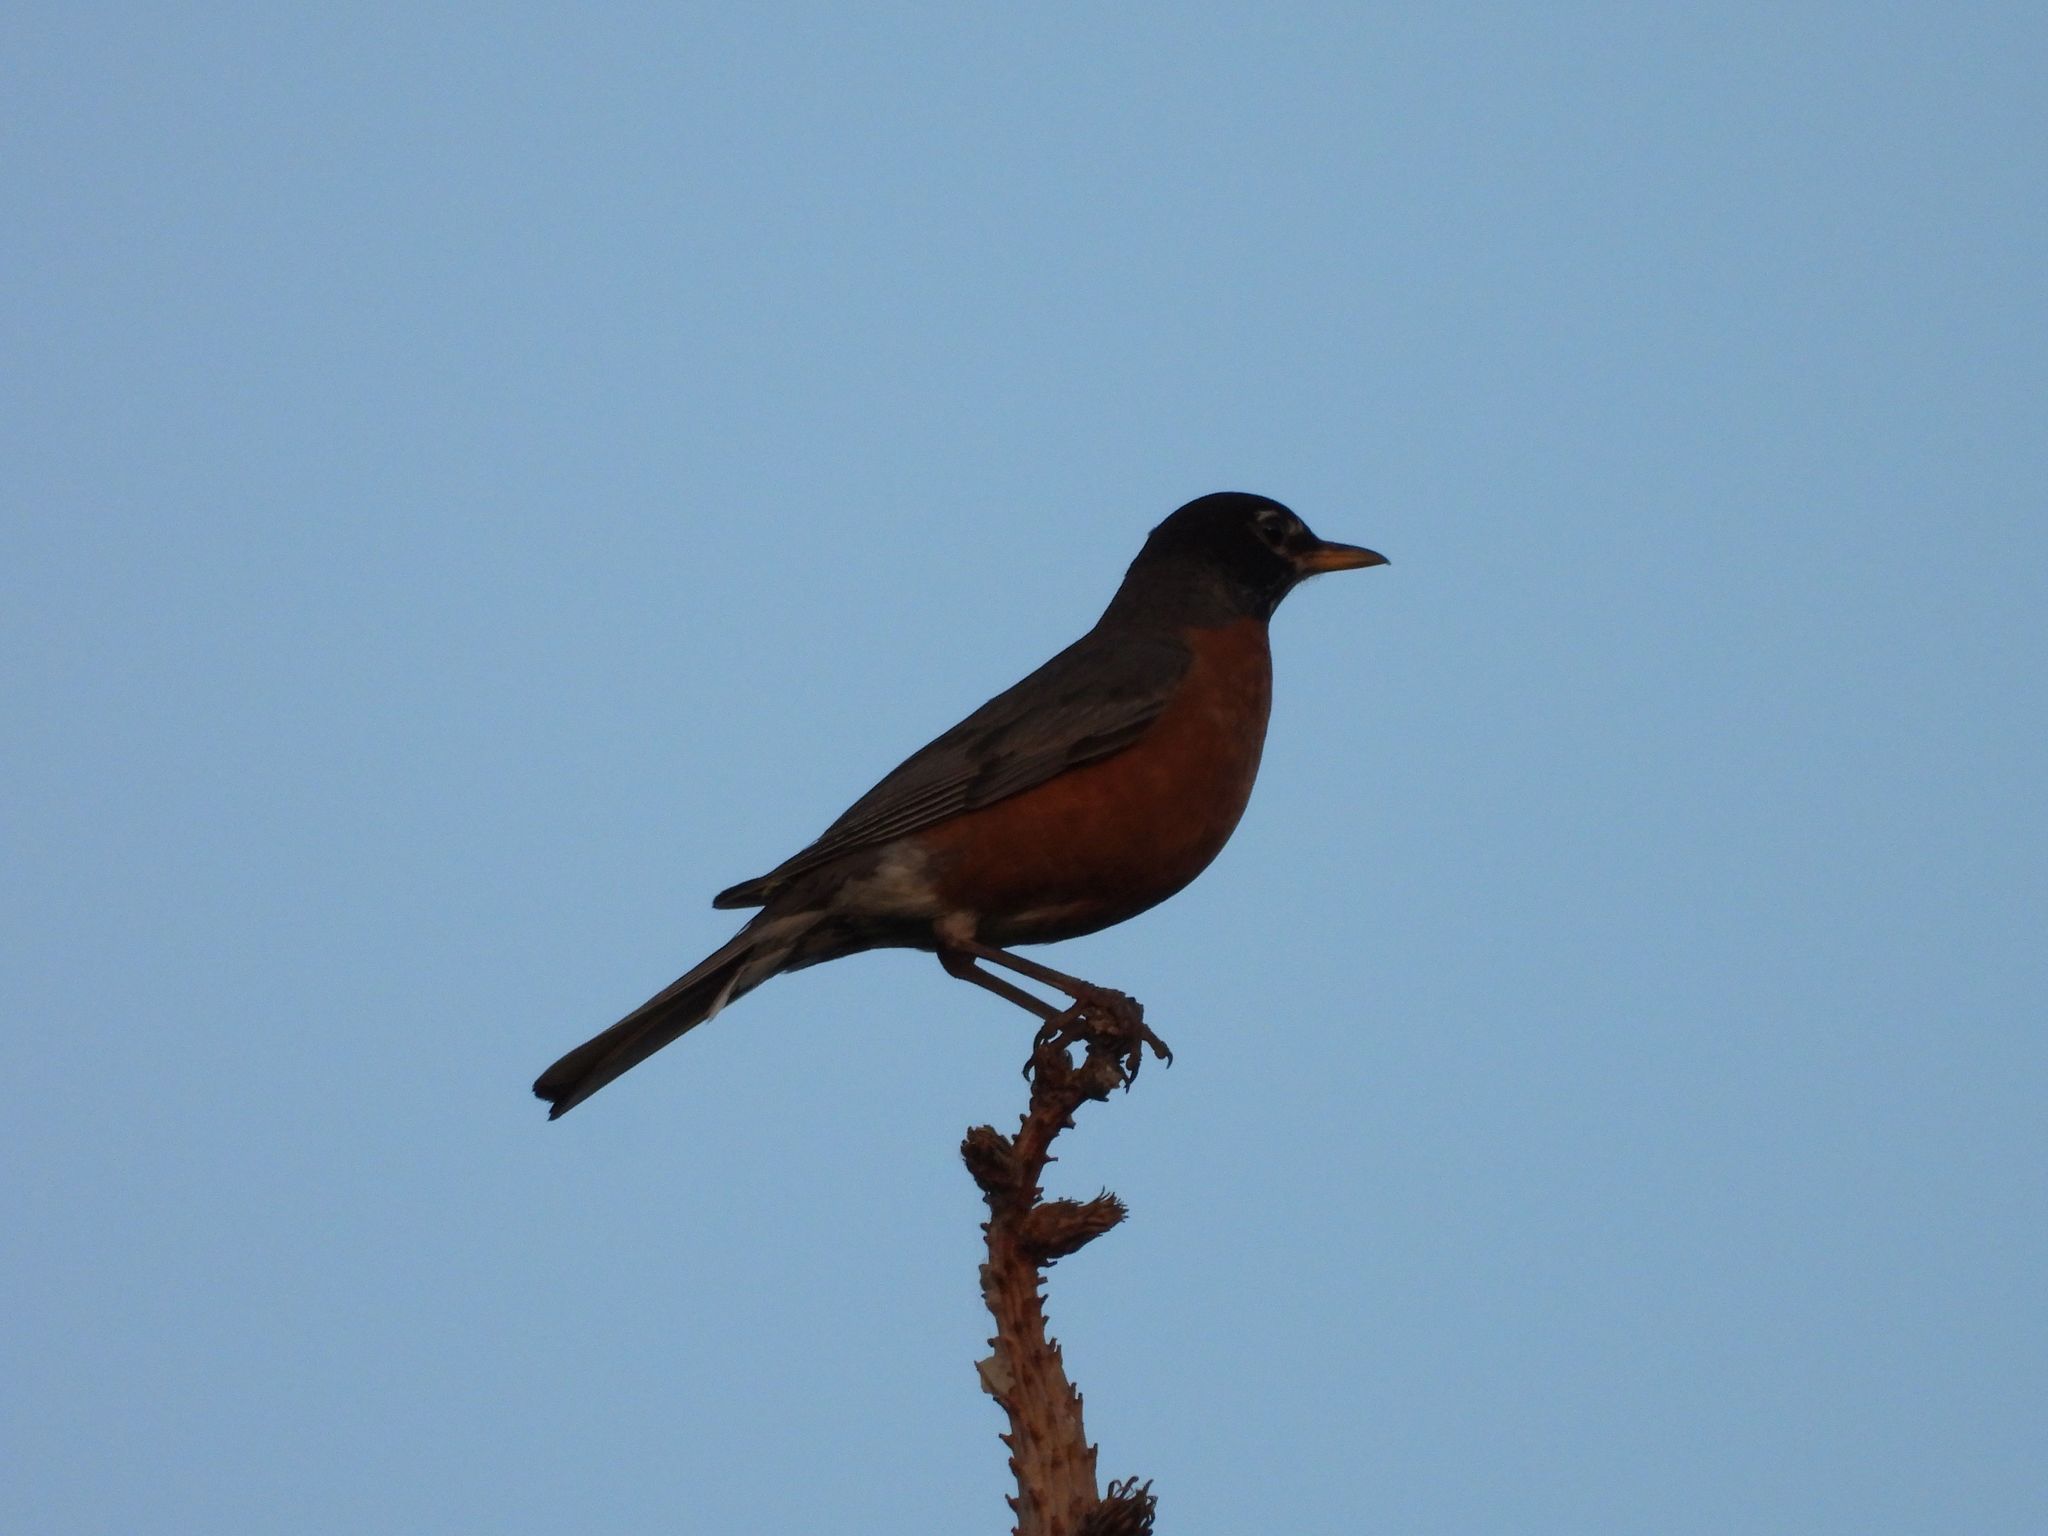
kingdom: Animalia
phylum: Chordata
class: Aves
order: Passeriformes
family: Turdidae
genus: Turdus
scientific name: Turdus migratorius
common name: American robin
